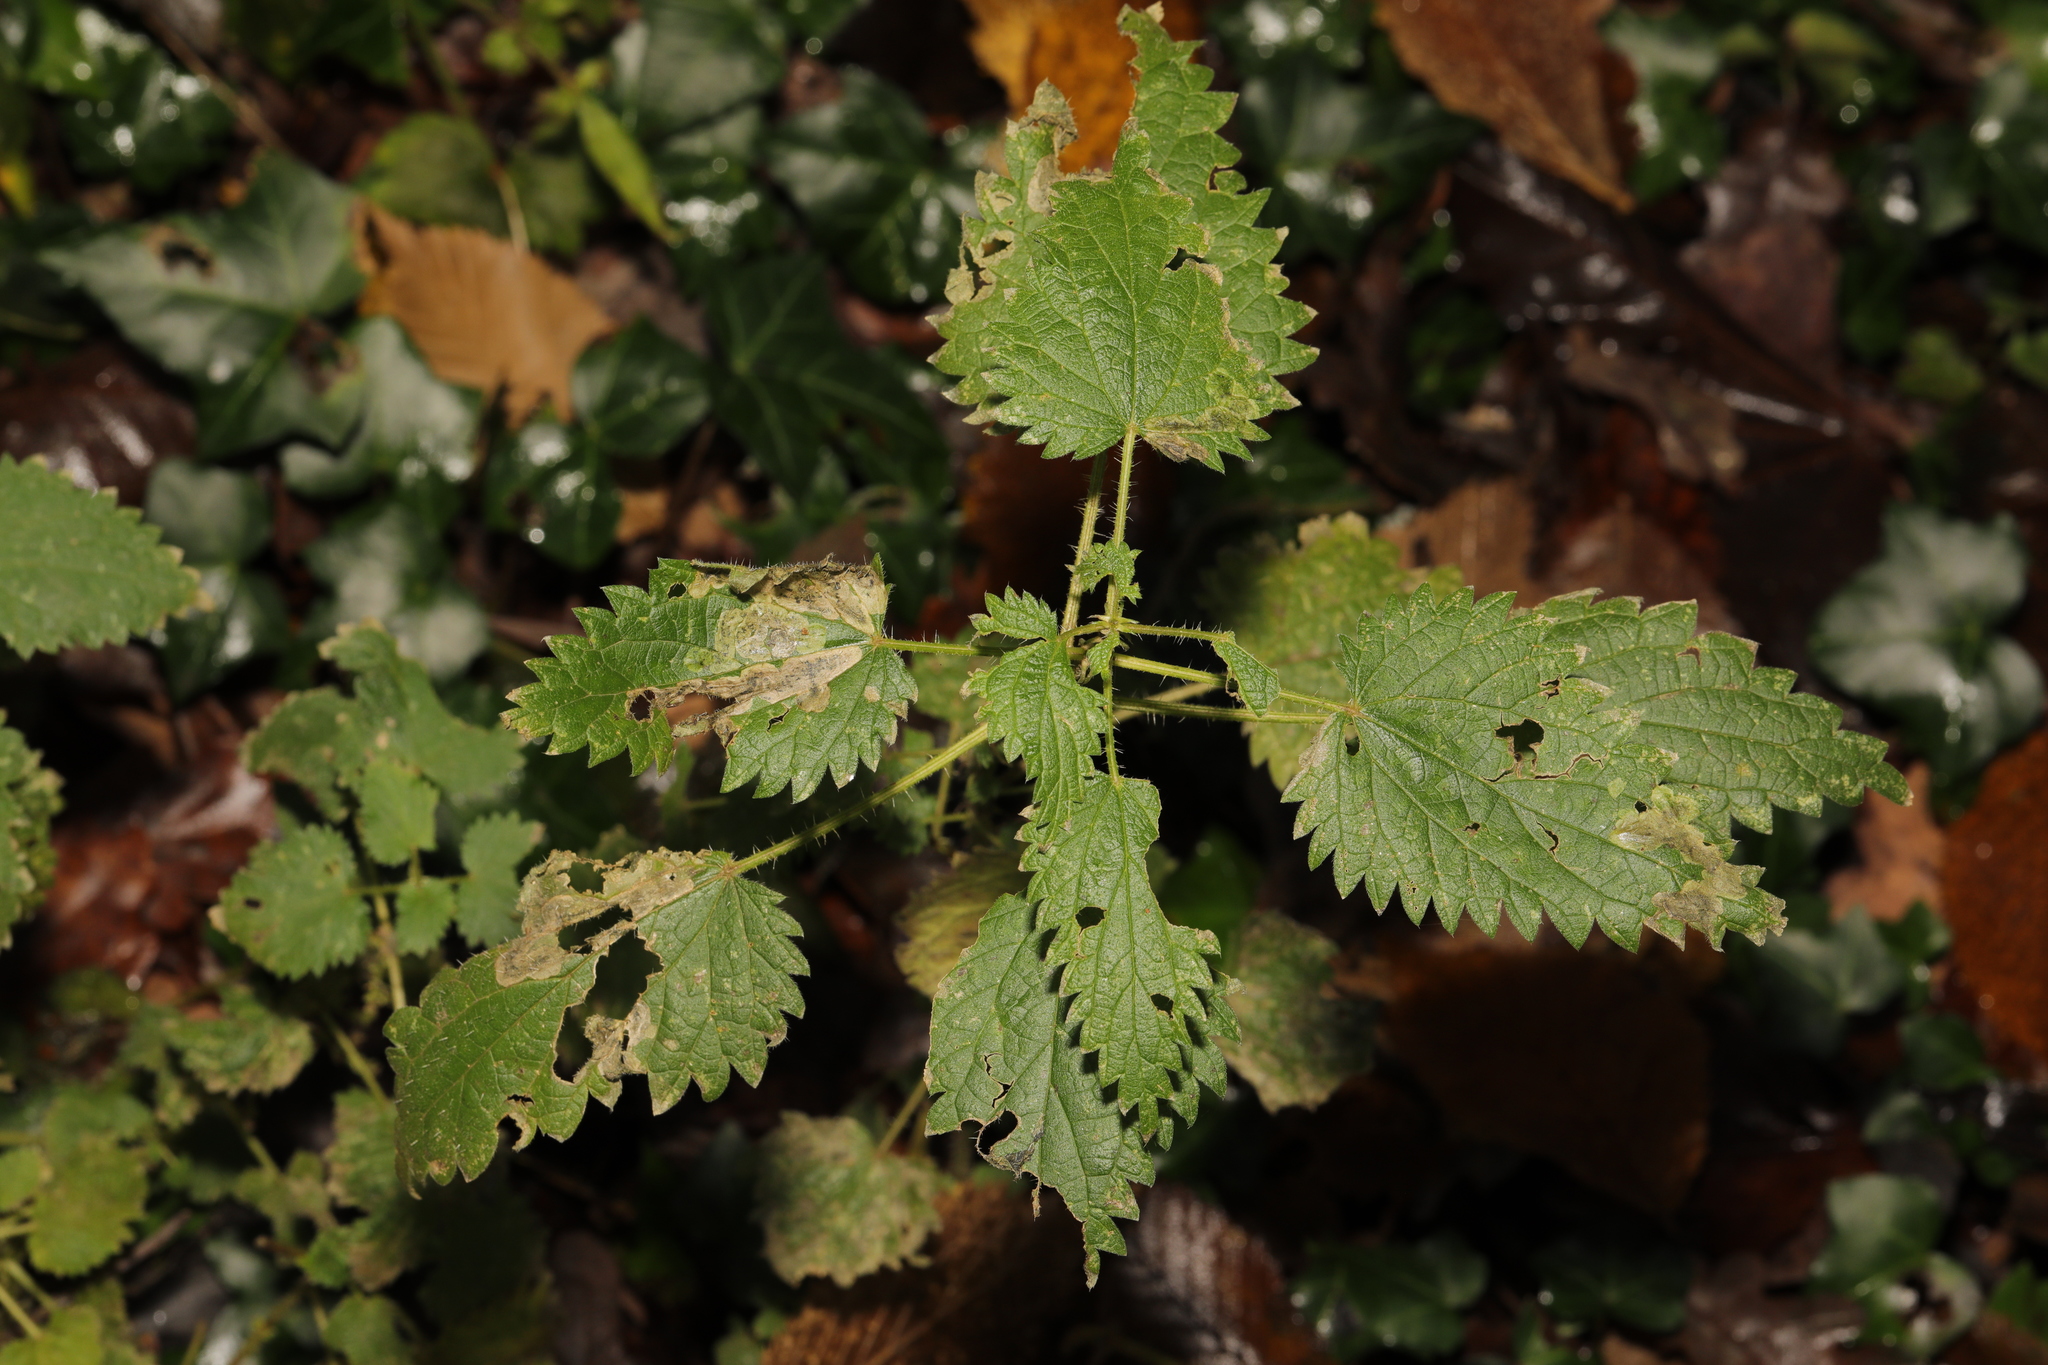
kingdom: Plantae
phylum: Tracheophyta
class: Magnoliopsida
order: Rosales
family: Urticaceae
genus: Urtica
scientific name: Urtica dioica
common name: Common nettle
